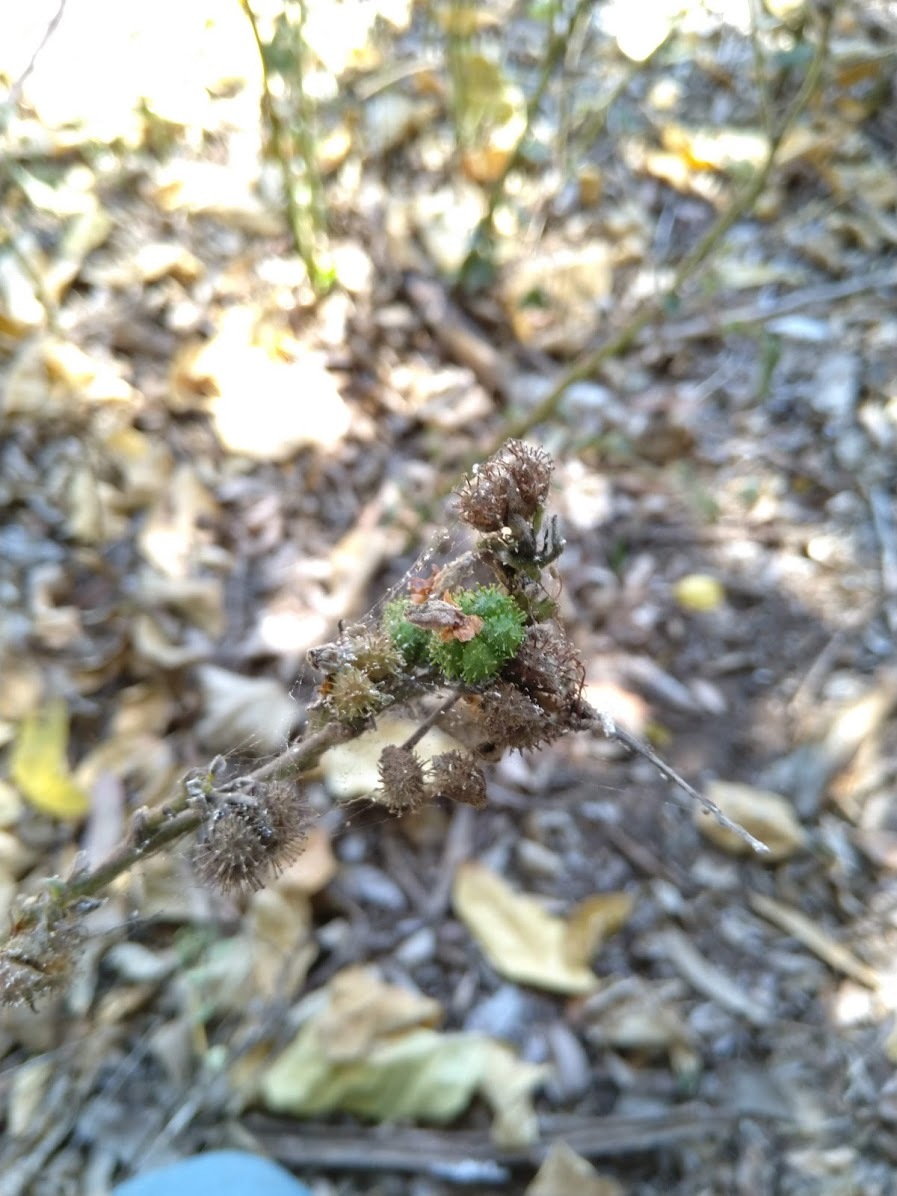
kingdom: Plantae
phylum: Tracheophyta
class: Magnoliopsida
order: Malvales
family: Malvaceae
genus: Urena
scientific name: Urena lobata
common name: Caesarweed
